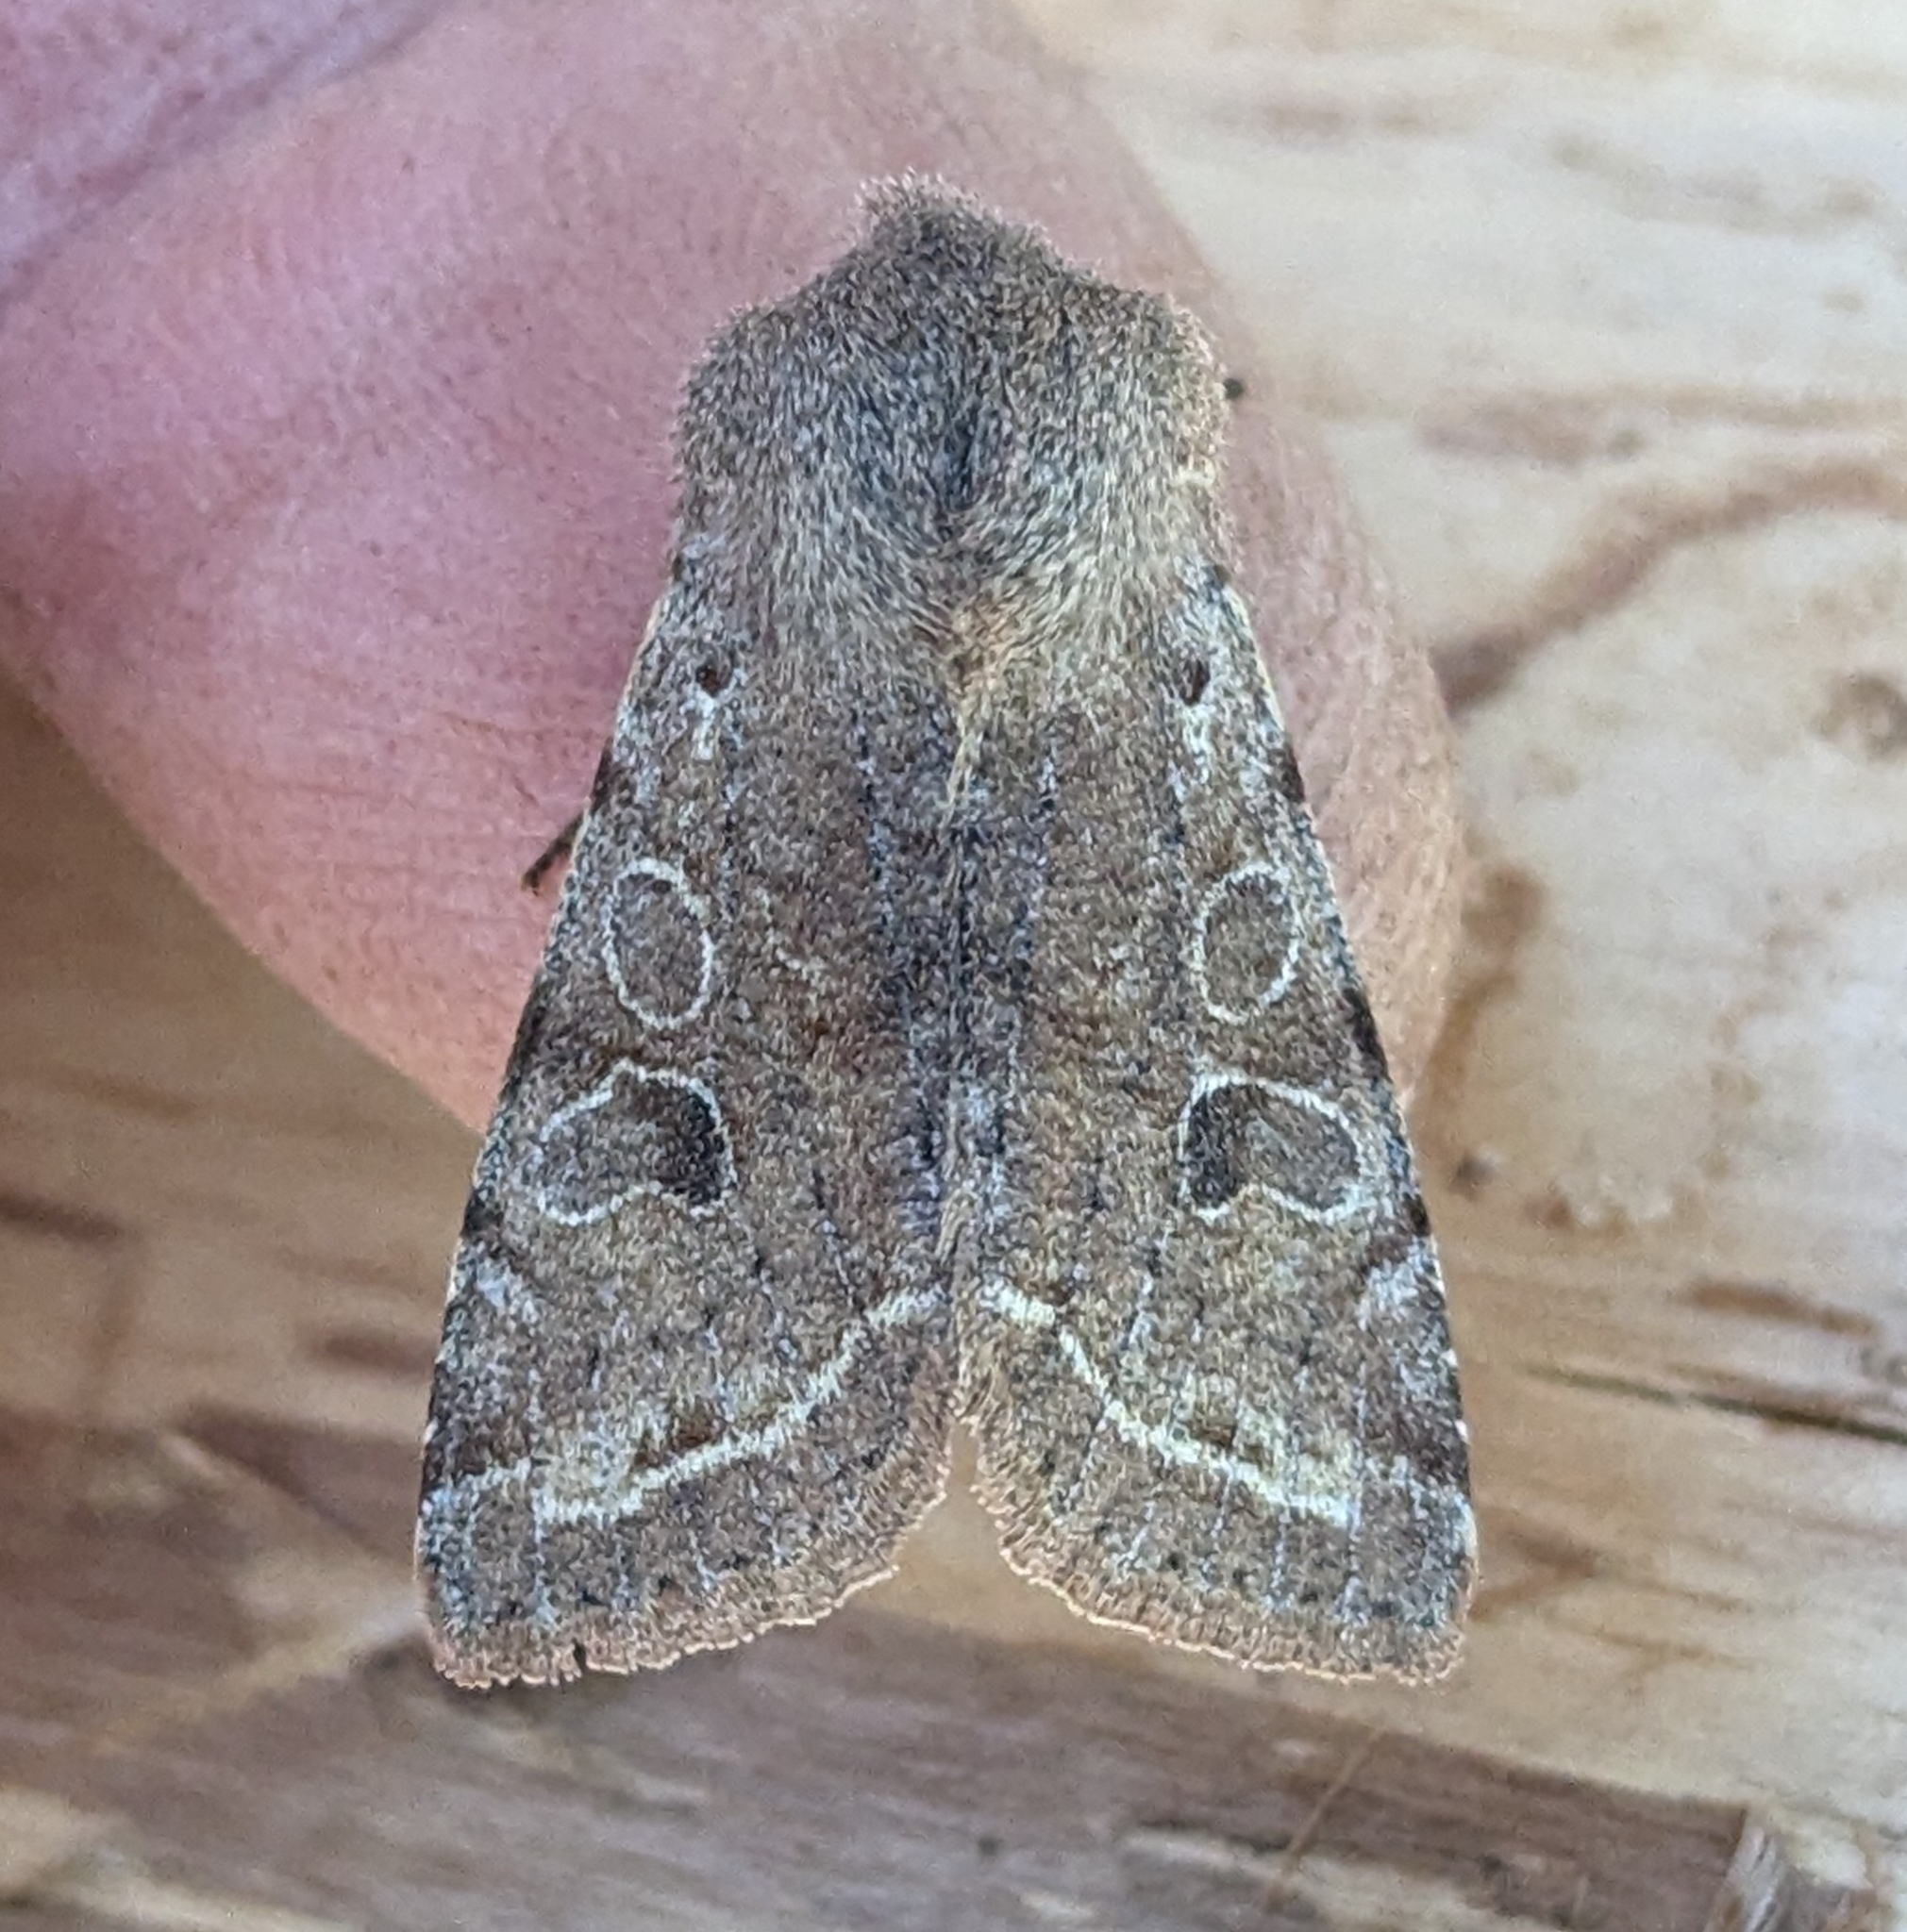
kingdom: Animalia
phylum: Arthropoda
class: Insecta
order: Lepidoptera
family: Noctuidae
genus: Orthosia
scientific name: Orthosia hibisci
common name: Green fruitworm
